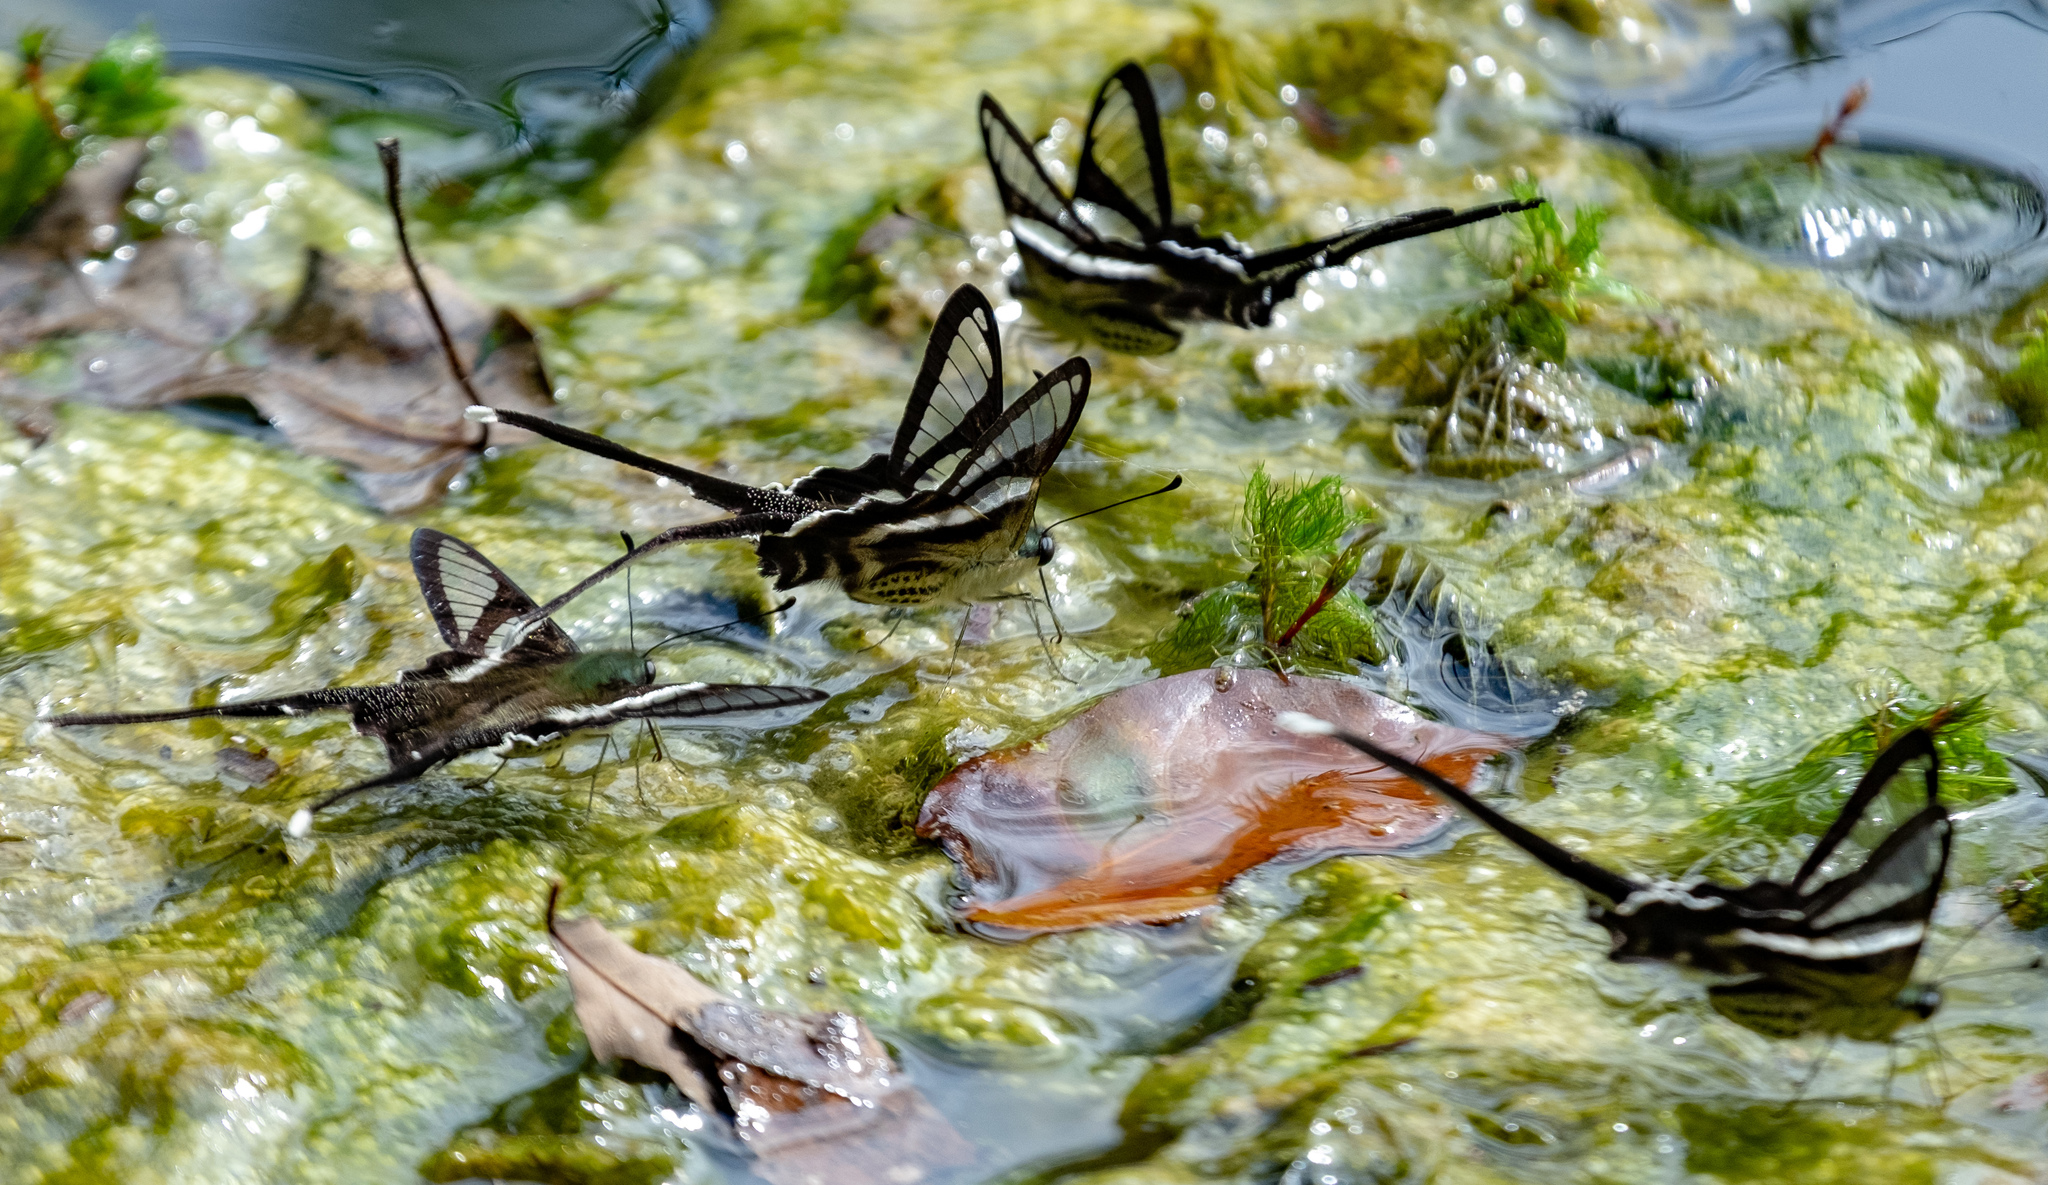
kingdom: Animalia
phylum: Arthropoda
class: Insecta
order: Lepidoptera
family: Papilionidae
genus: Lamproptera
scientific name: Lamproptera curius
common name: White dragontail
